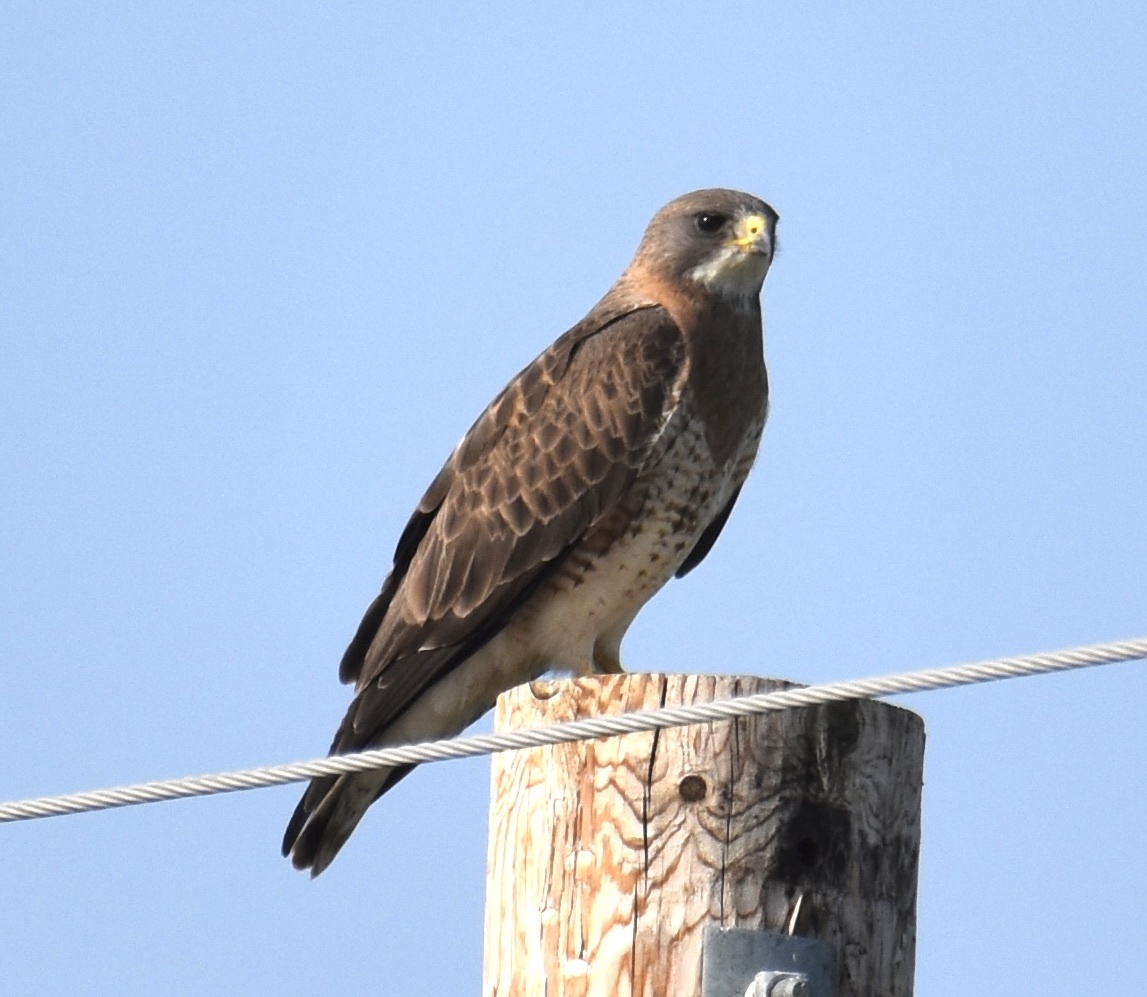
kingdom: Animalia
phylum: Chordata
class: Aves
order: Accipitriformes
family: Accipitridae
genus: Buteo
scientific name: Buteo swainsoni
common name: Swainson's hawk
